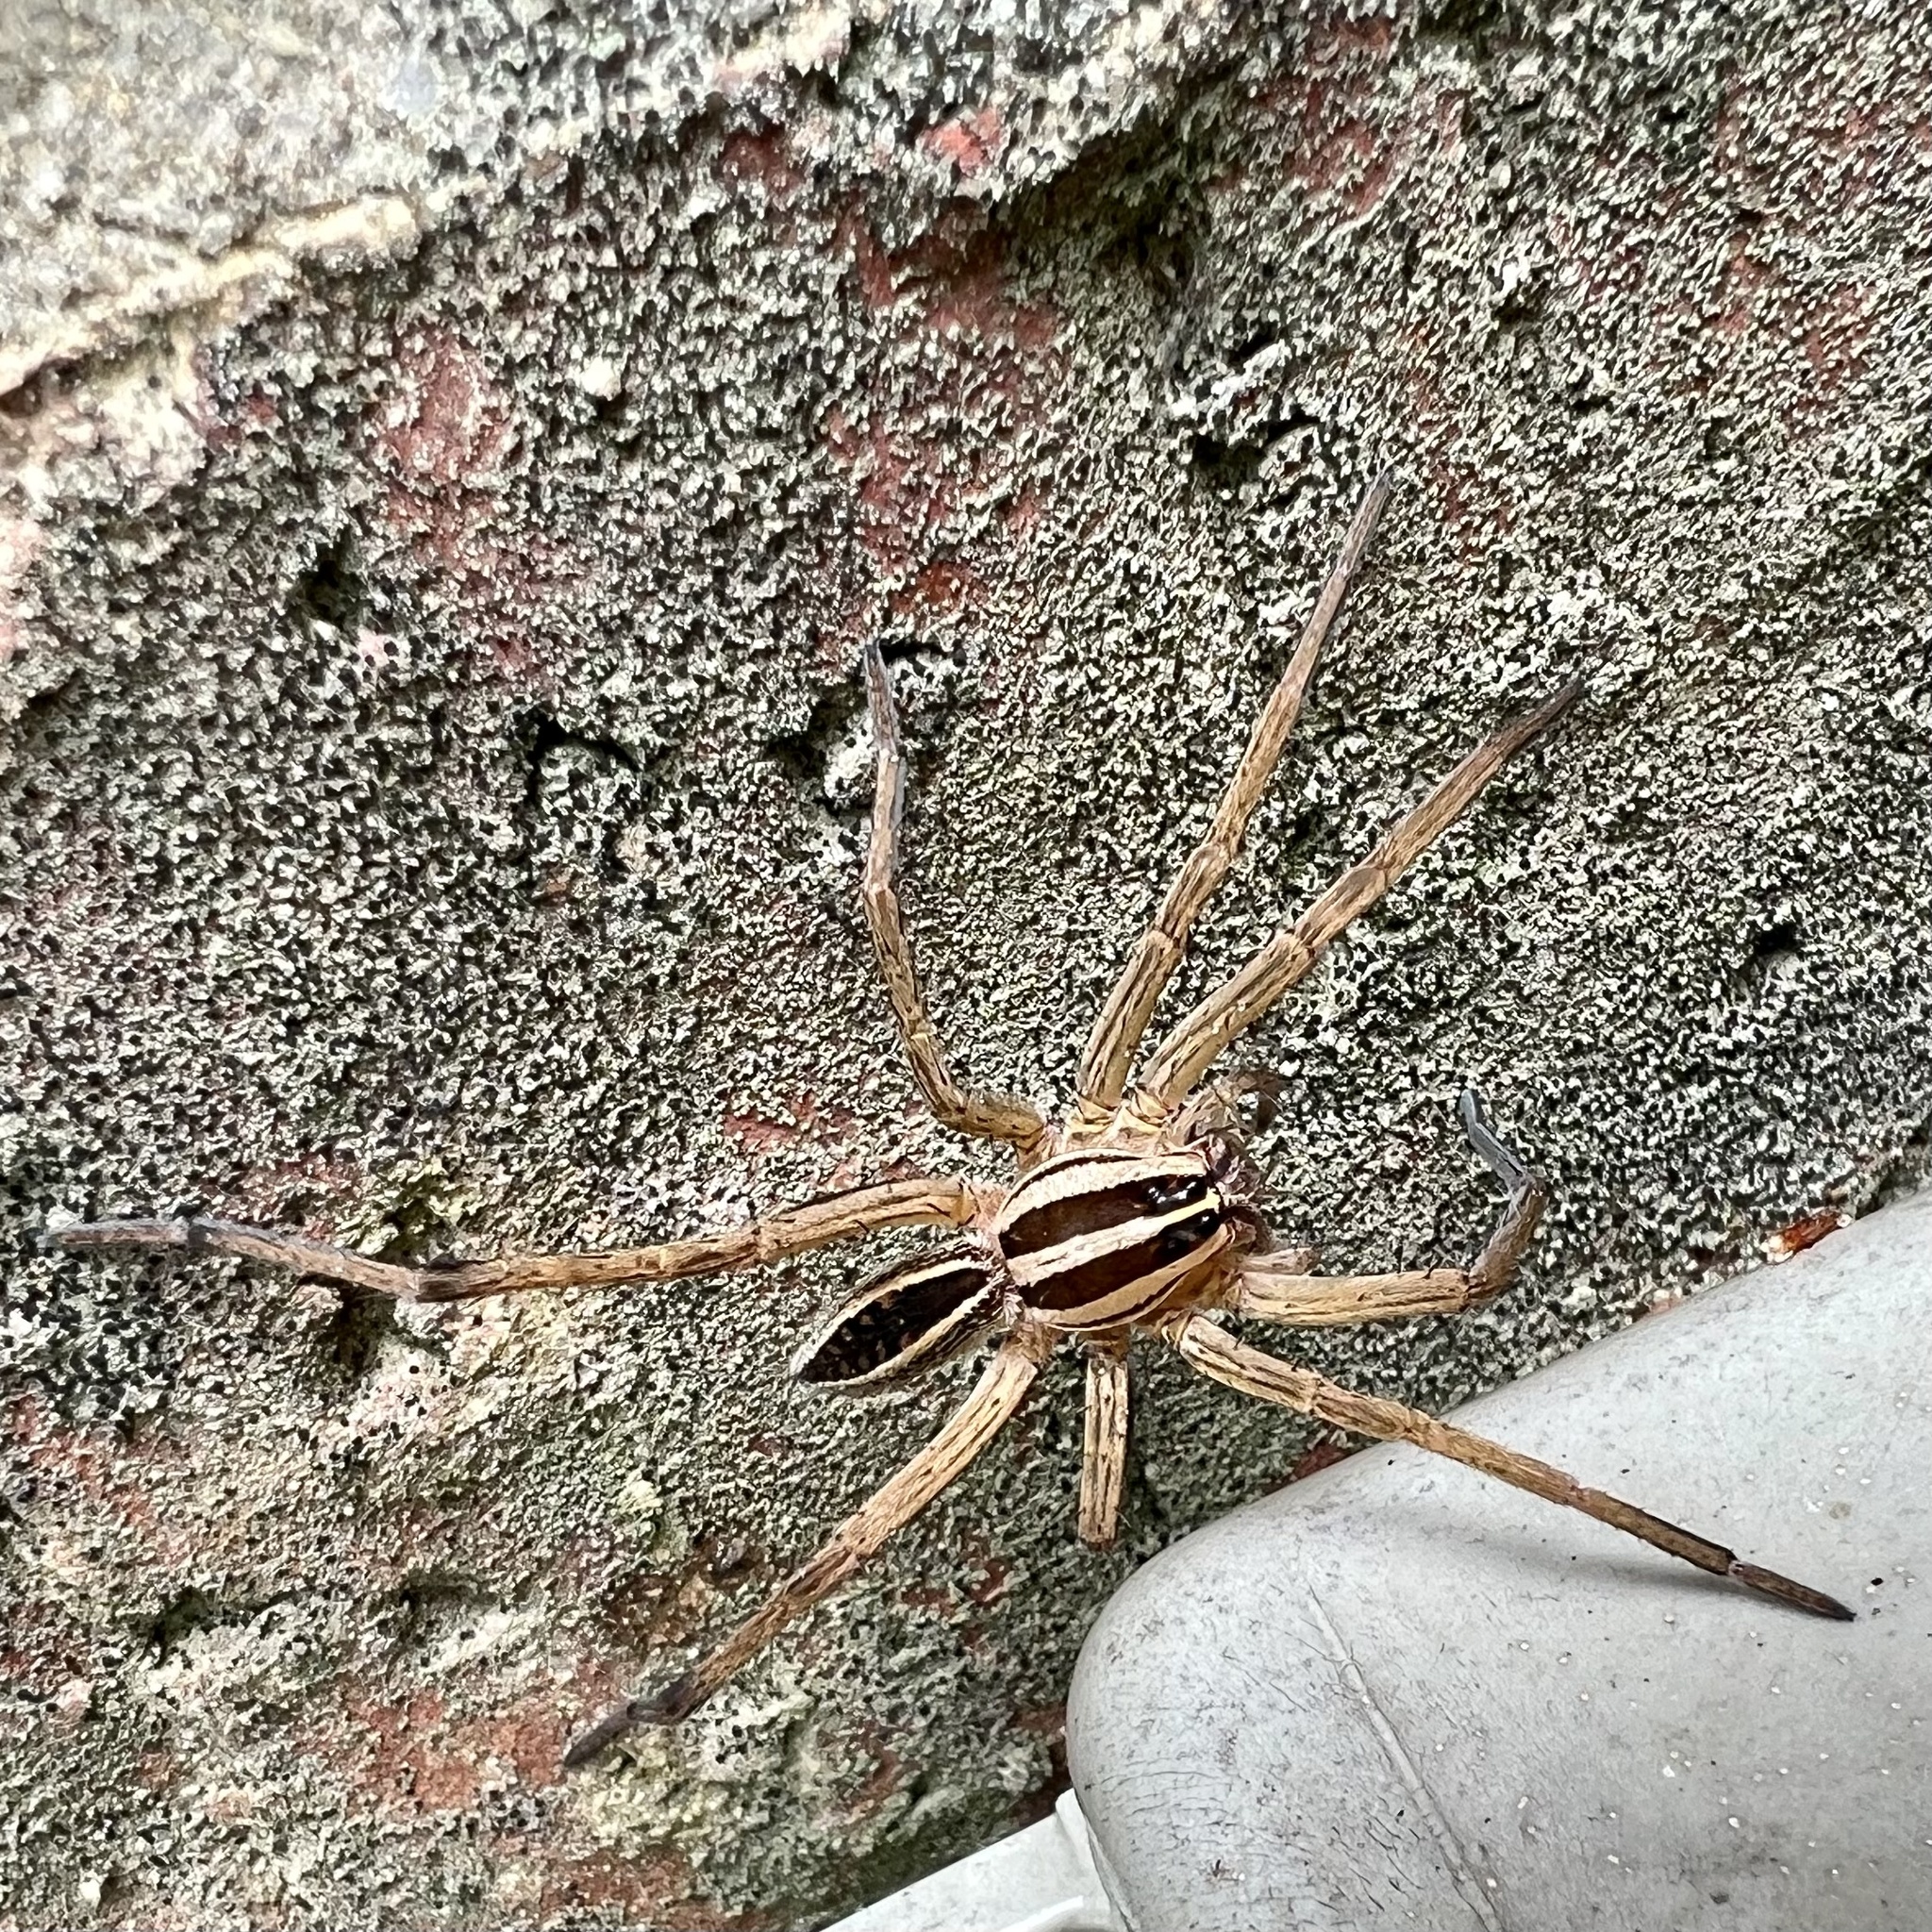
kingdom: Animalia
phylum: Arthropoda
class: Arachnida
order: Araneae
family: Lycosidae
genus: Rabidosa
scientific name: Rabidosa rabida
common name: Rabid wolf spider
